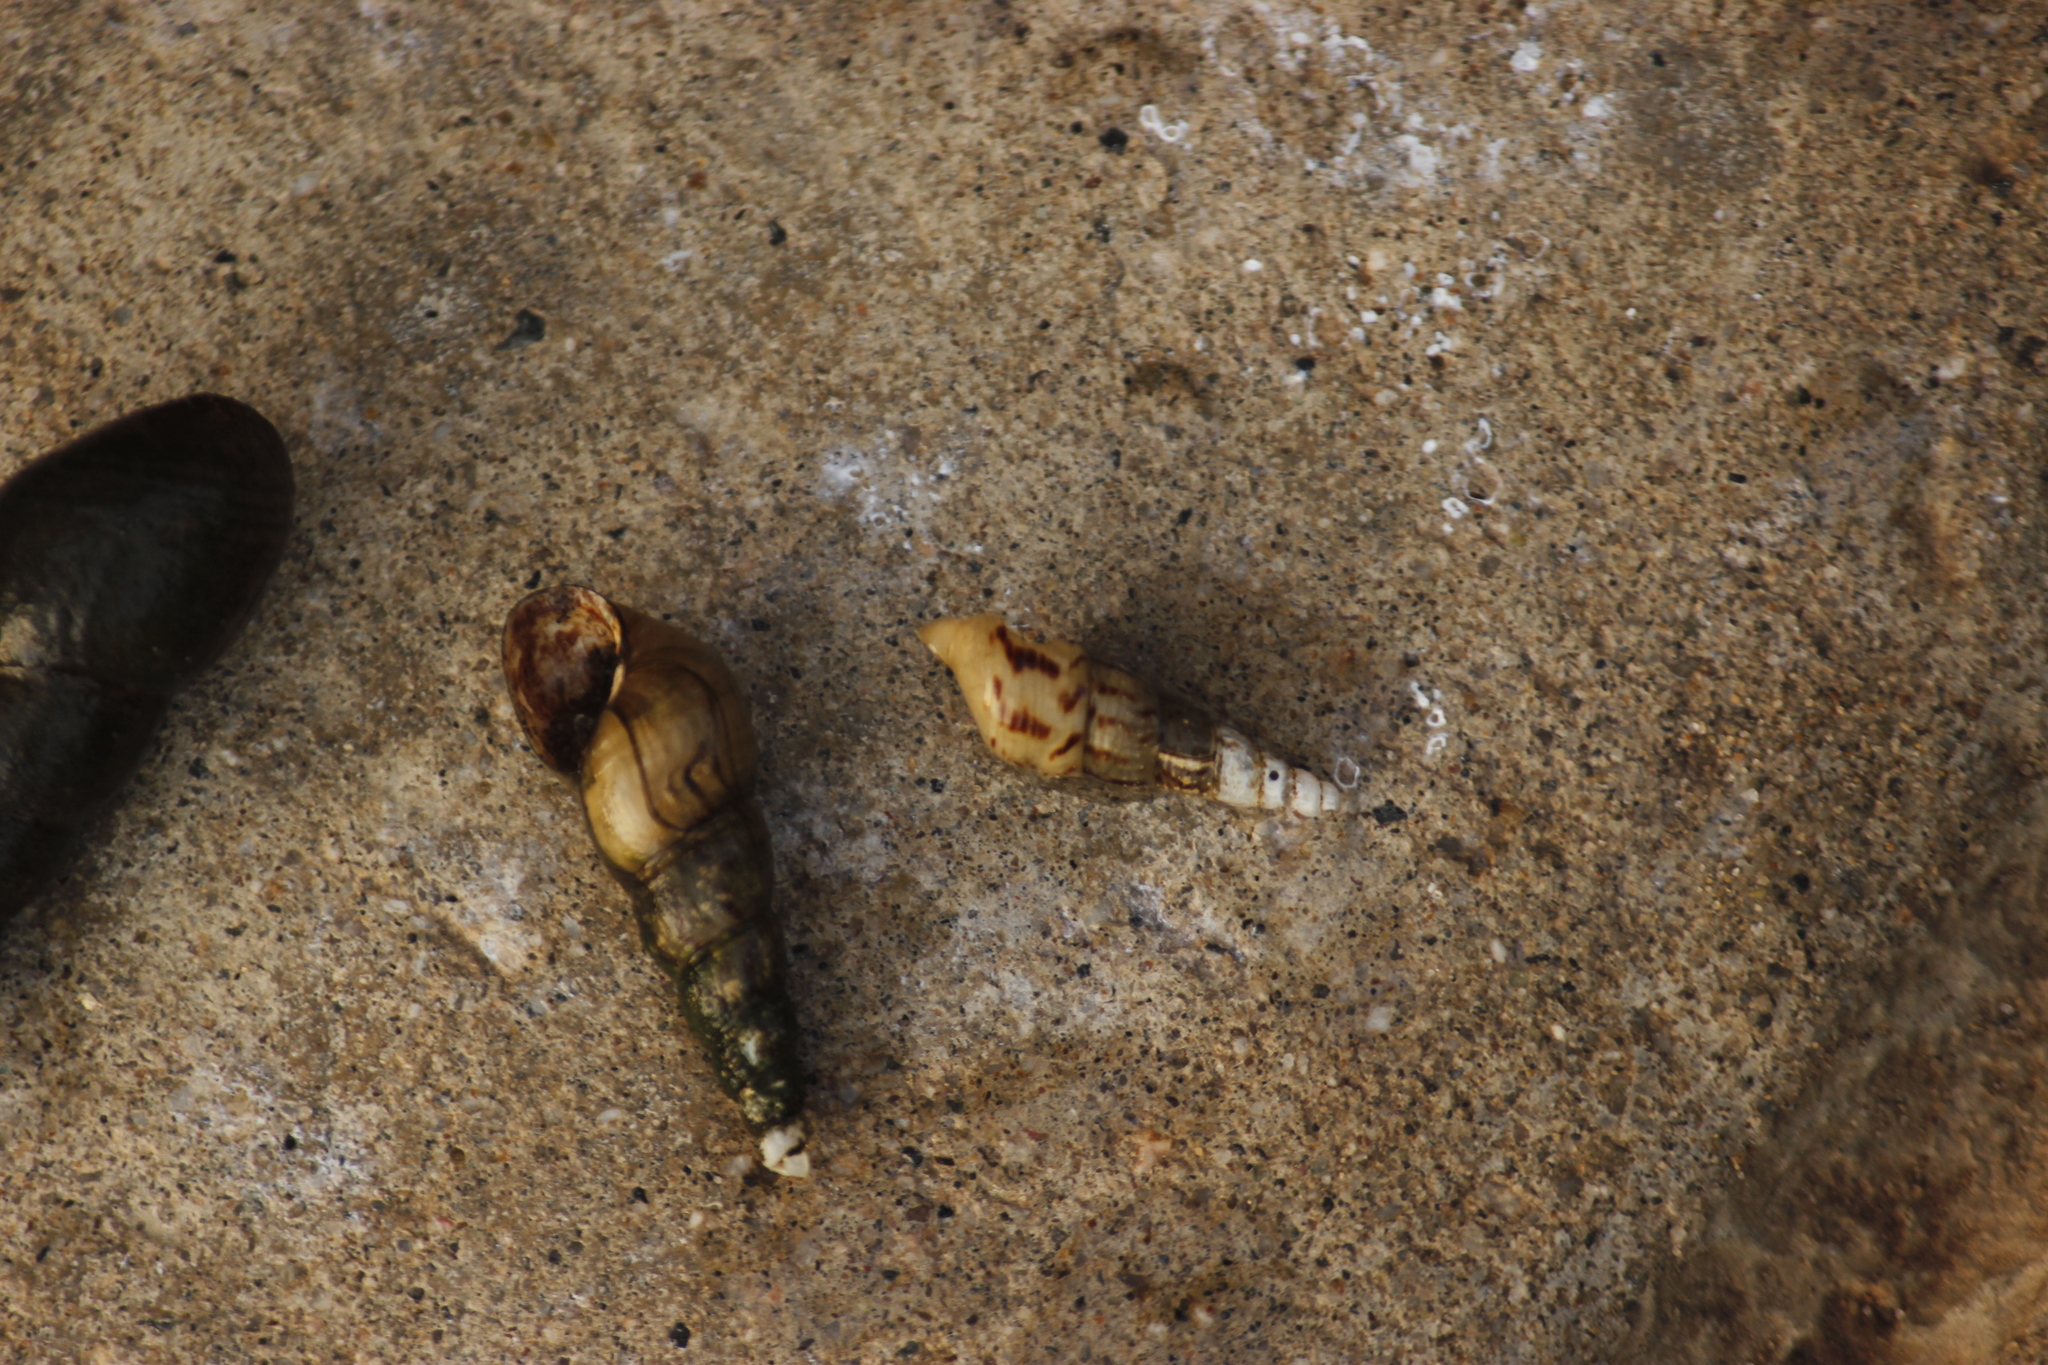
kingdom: Animalia
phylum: Mollusca
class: Gastropoda
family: Thiaridae
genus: Melanoides
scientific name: Melanoides tuberculata
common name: Red-rim melania
